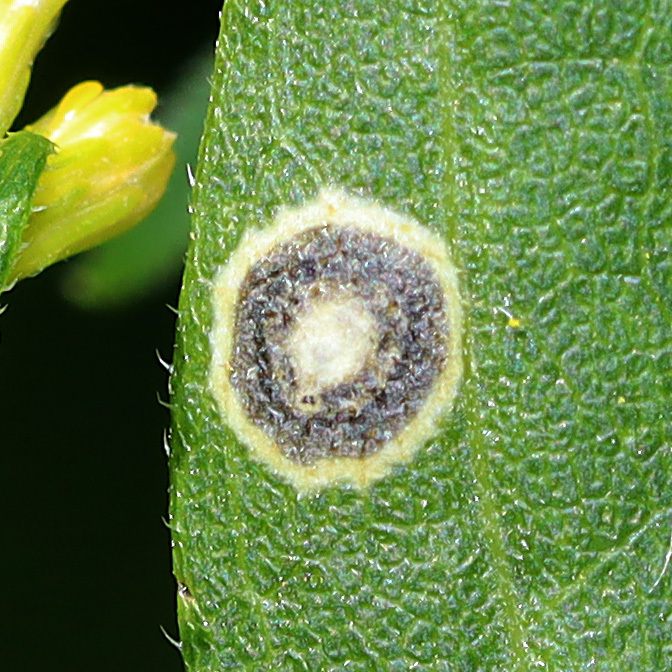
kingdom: Animalia
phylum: Arthropoda
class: Insecta
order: Diptera
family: Cecidomyiidae
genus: Asteromyia
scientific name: Asteromyia carbonifera
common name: Carbonifera goldenrod gall midge
